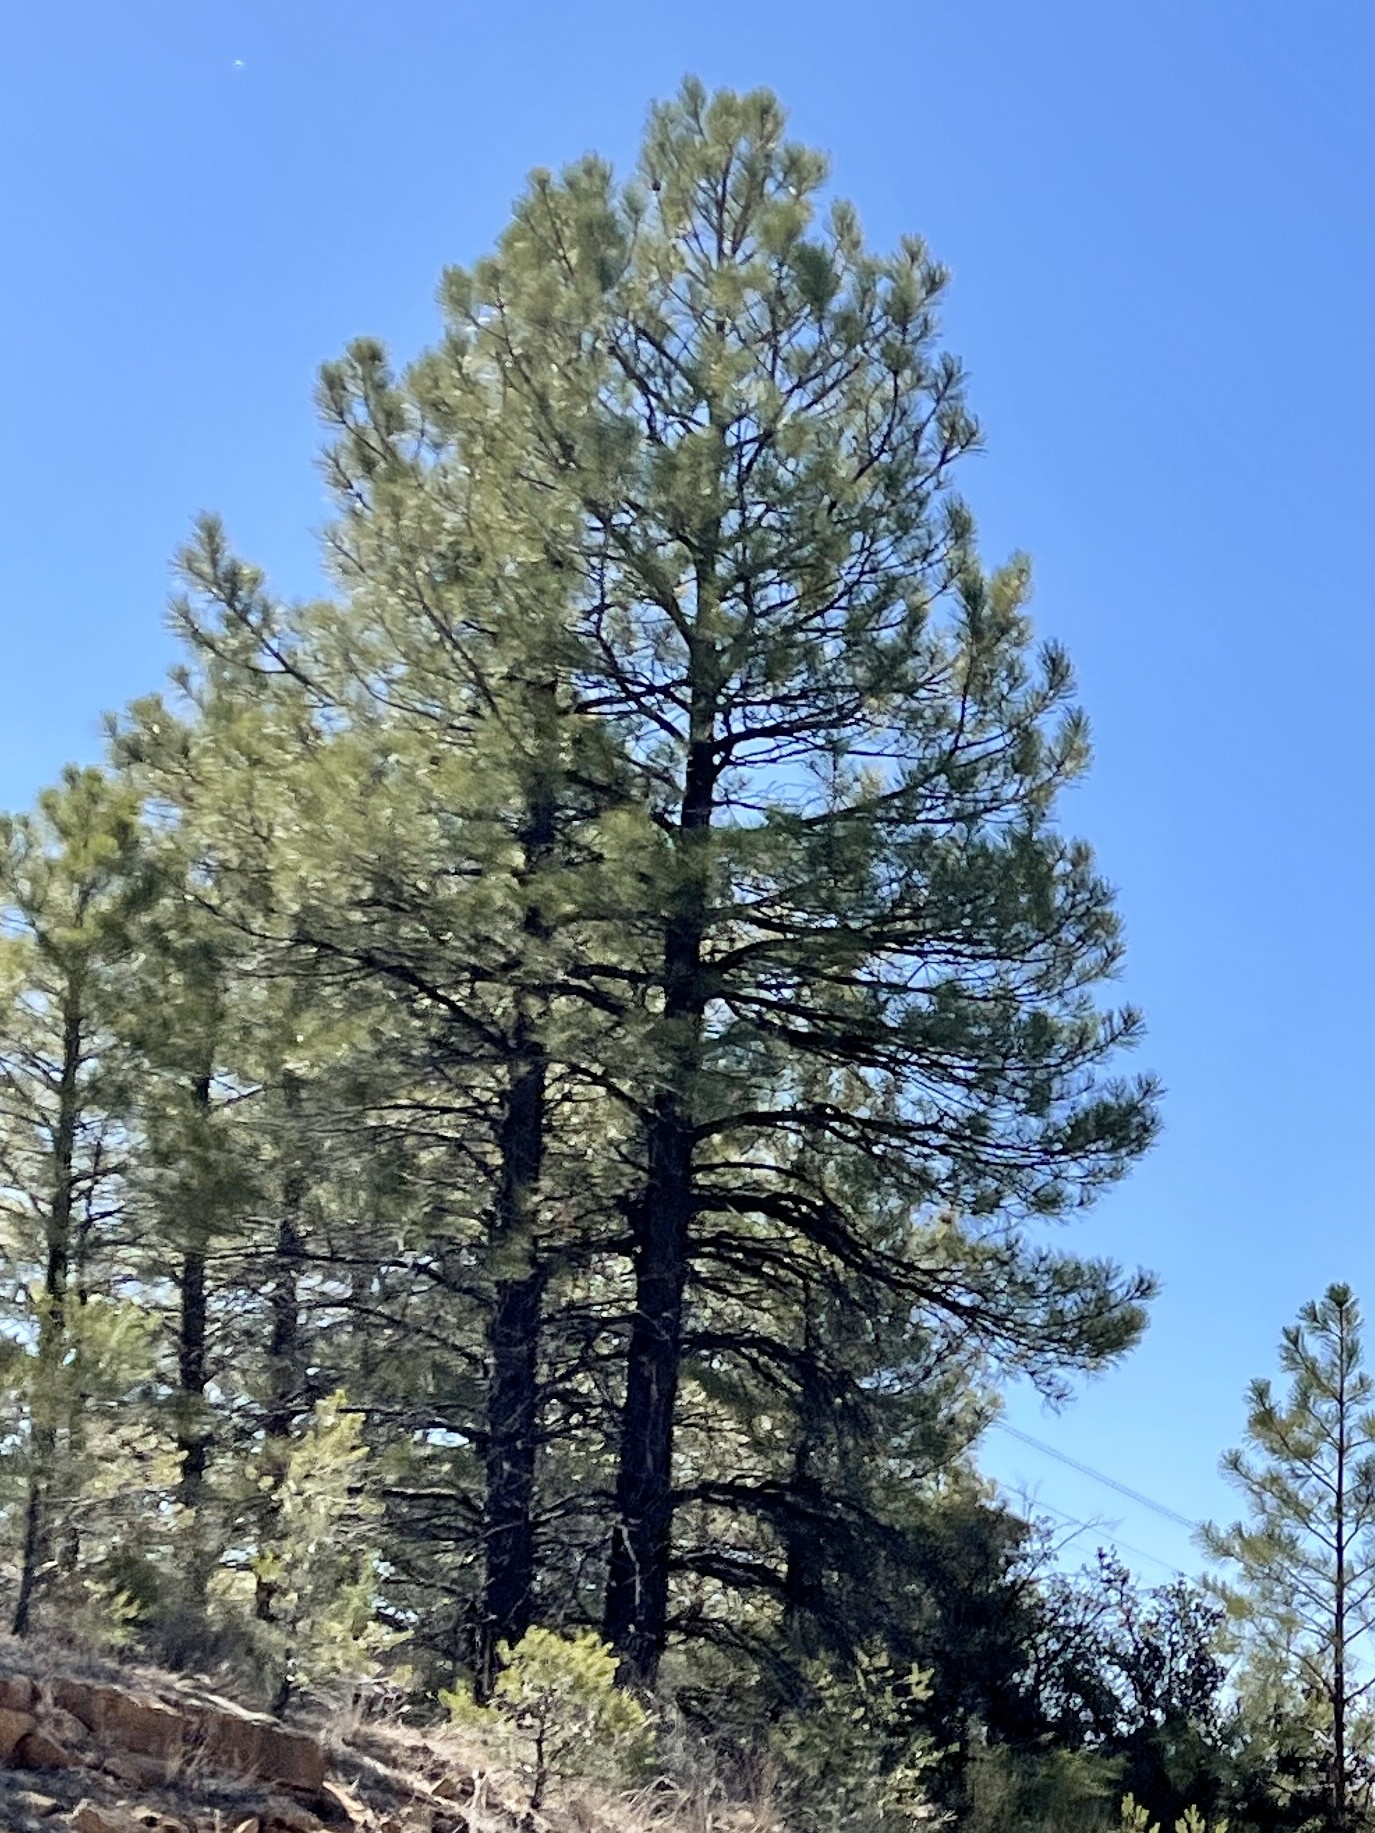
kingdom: Plantae
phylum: Tracheophyta
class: Pinopsida
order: Pinales
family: Pinaceae
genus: Pinus
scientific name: Pinus ponderosa
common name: Western yellow-pine
